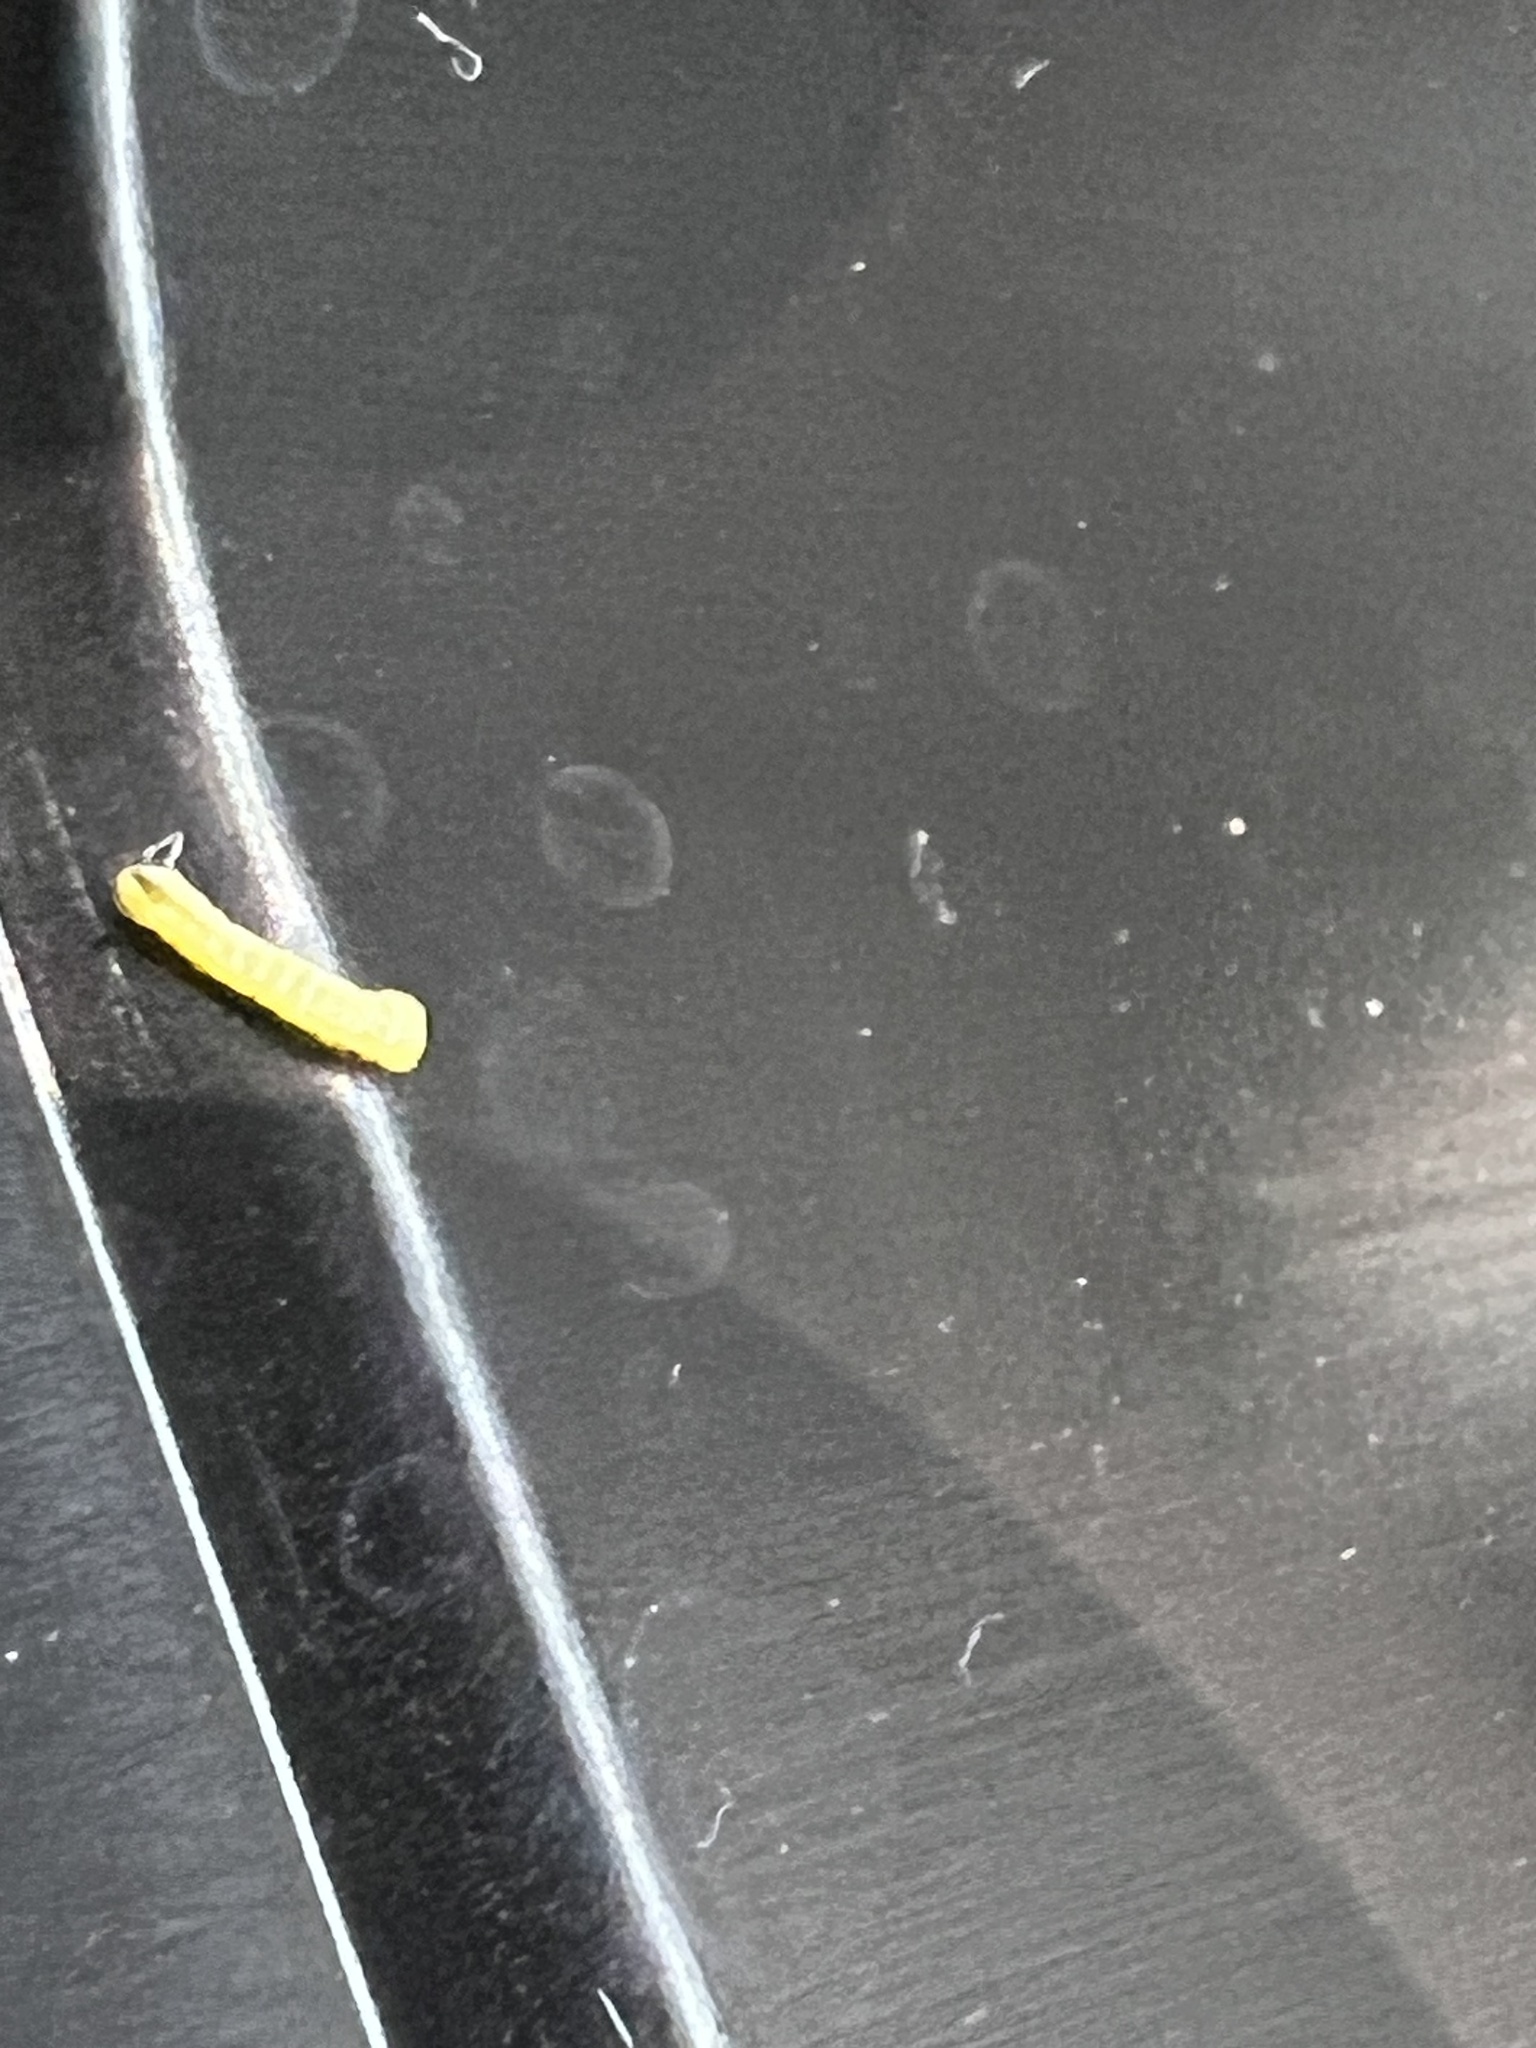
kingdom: Animalia
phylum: Arthropoda
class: Insecta
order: Lepidoptera
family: Sphingidae
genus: Hyles
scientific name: Hyles lineata
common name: White-lined sphinx
